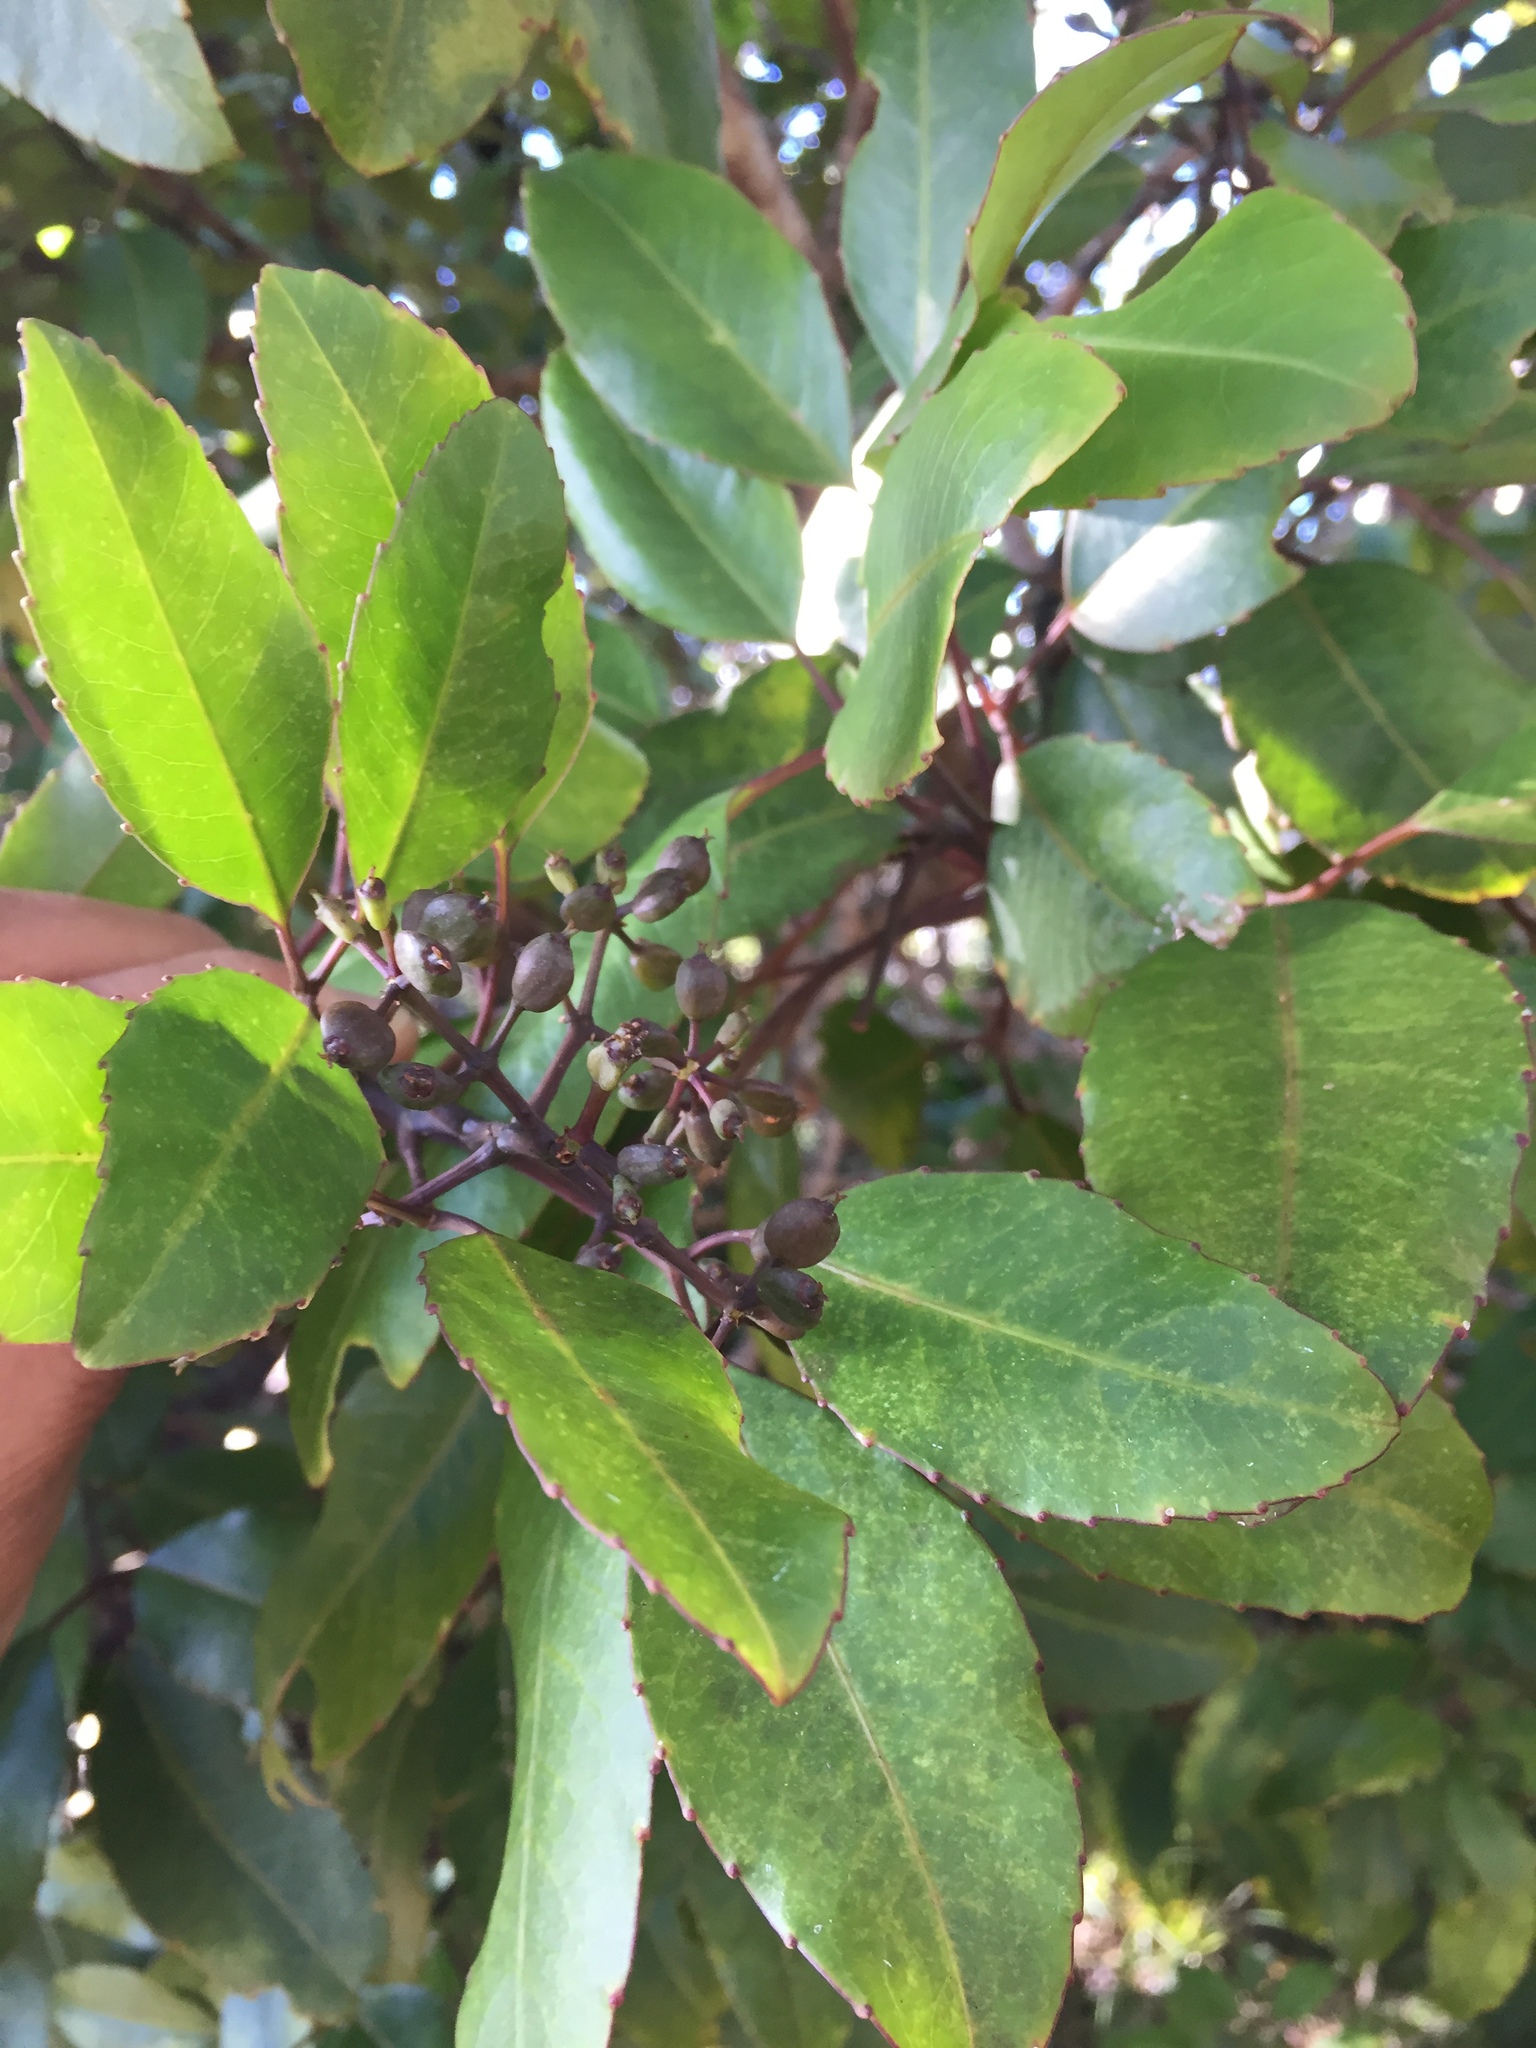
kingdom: Plantae
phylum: Tracheophyta
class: Magnoliopsida
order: Apiales
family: Araliaceae
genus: Cheirodendron
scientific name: Cheirodendron trigynum
